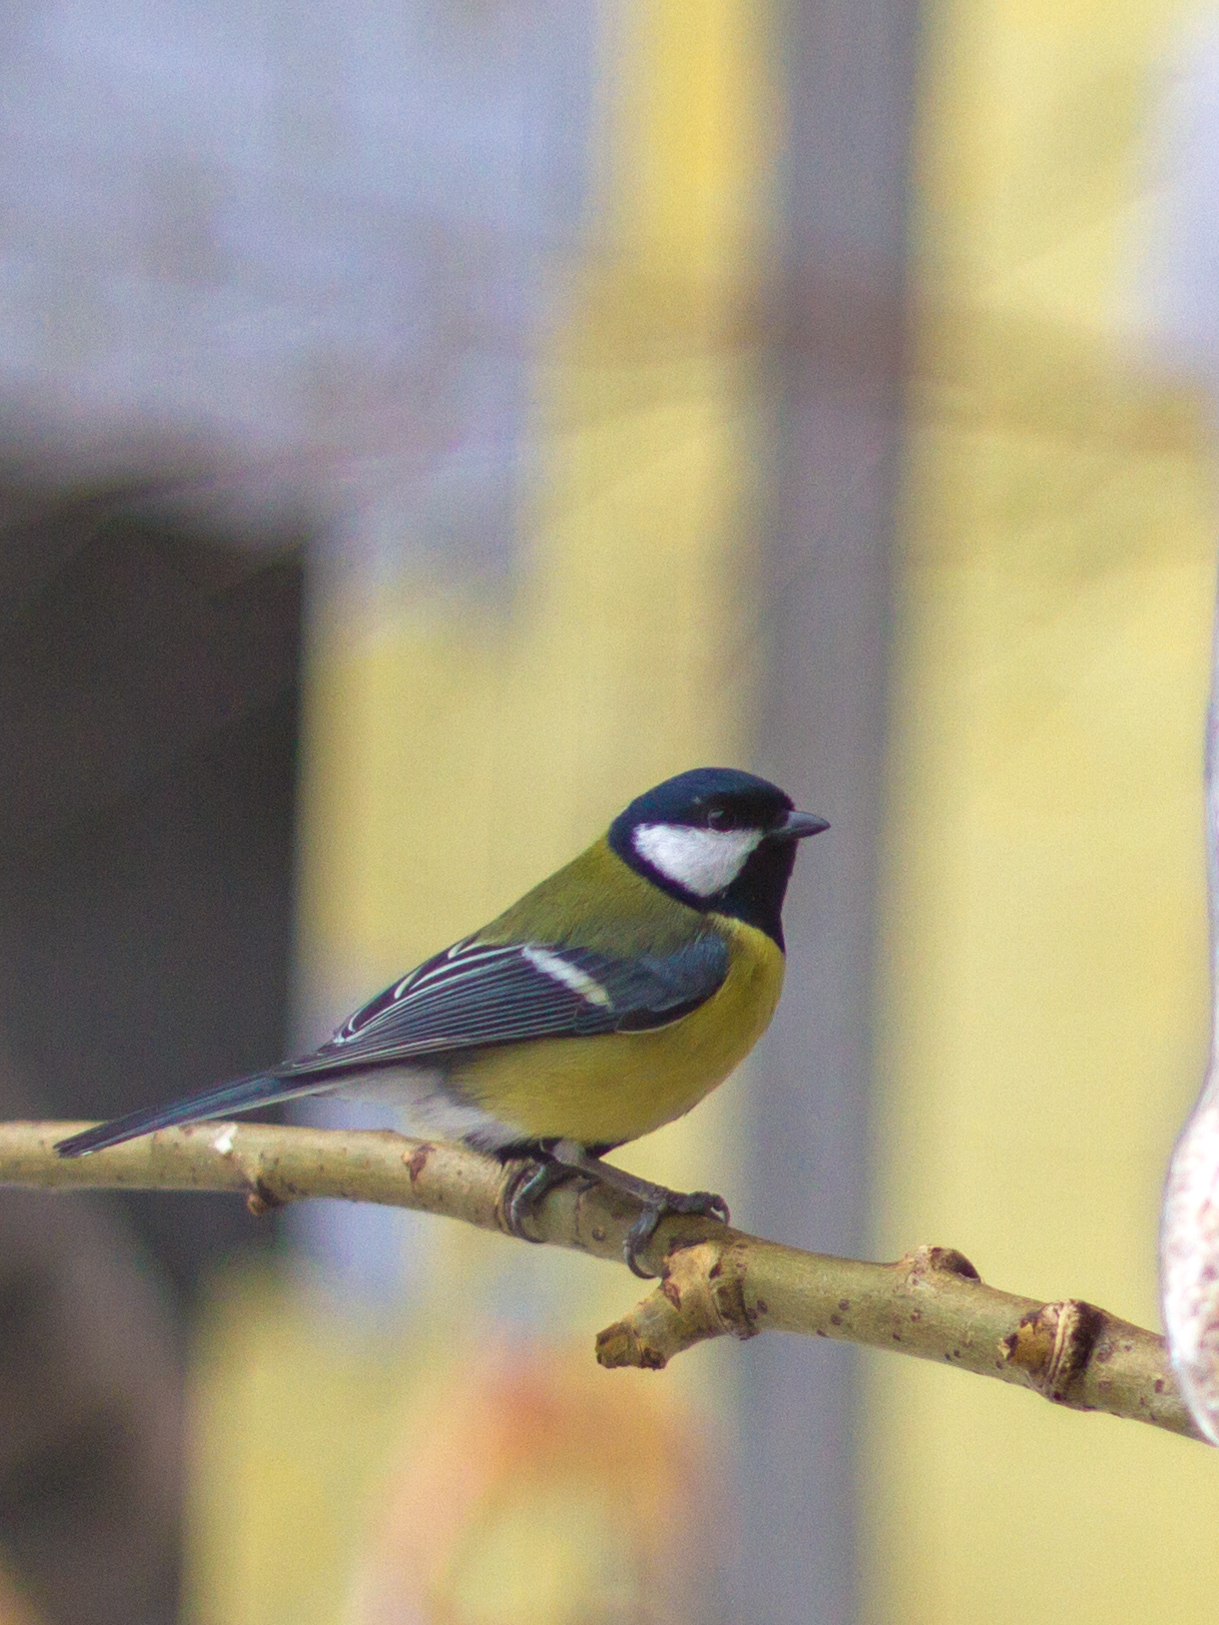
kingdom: Animalia
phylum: Chordata
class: Aves
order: Passeriformes
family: Paridae
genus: Parus
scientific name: Parus major
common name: Great tit
